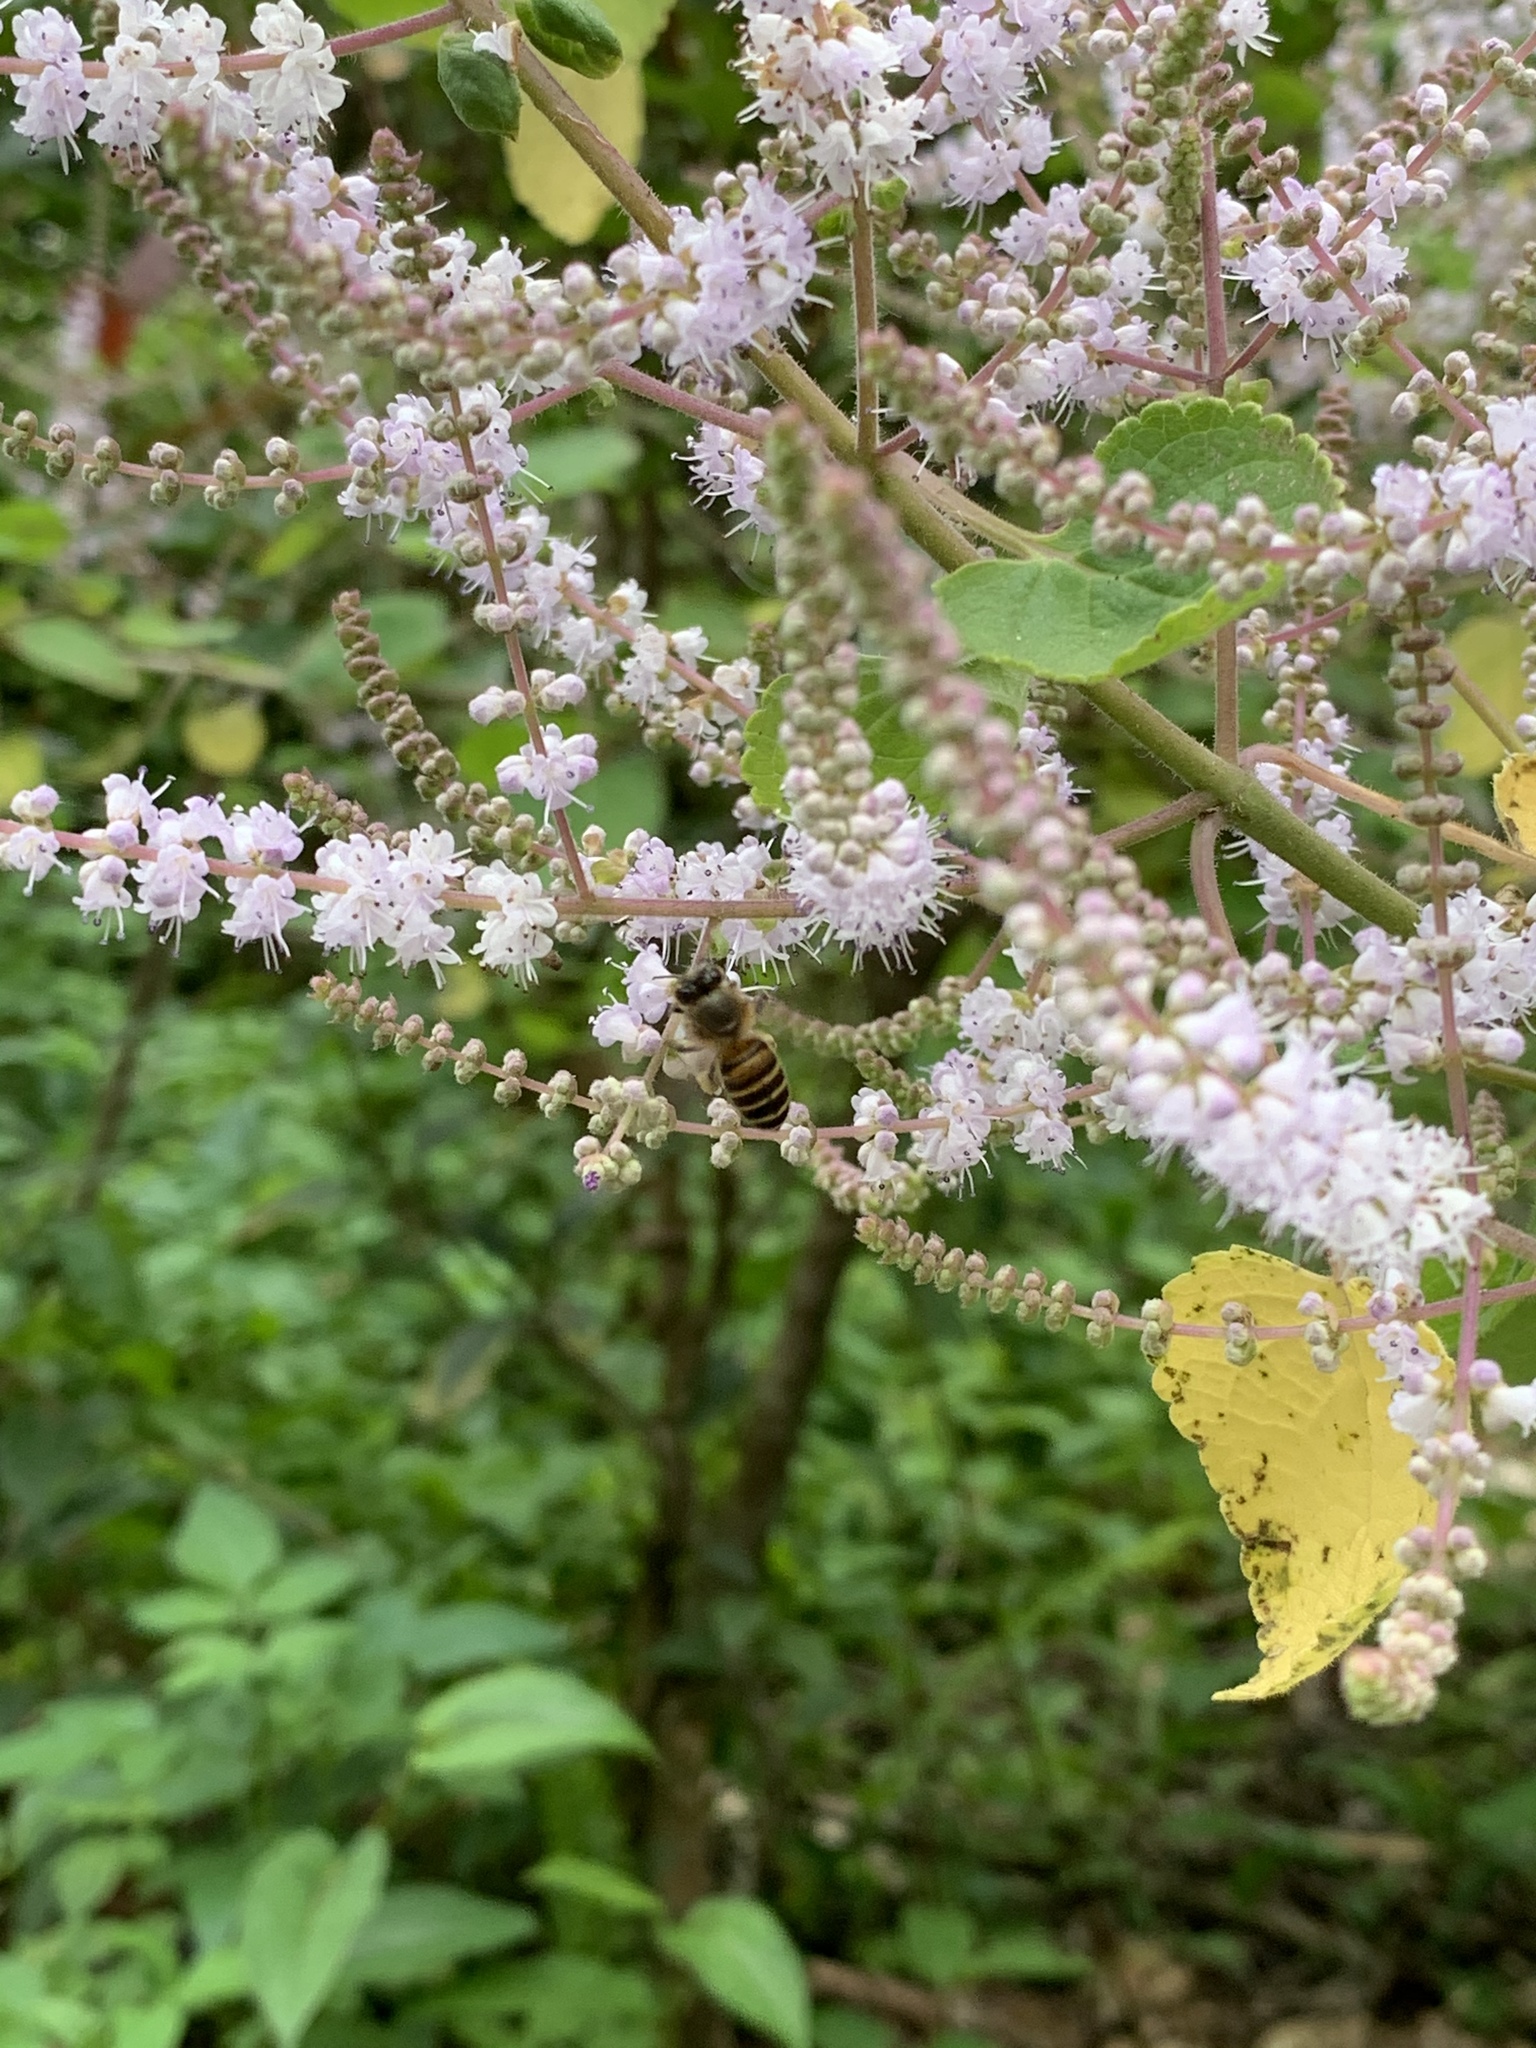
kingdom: Animalia
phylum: Arthropoda
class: Insecta
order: Hymenoptera
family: Apidae
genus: Apis
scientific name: Apis cerana
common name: Honey bee
